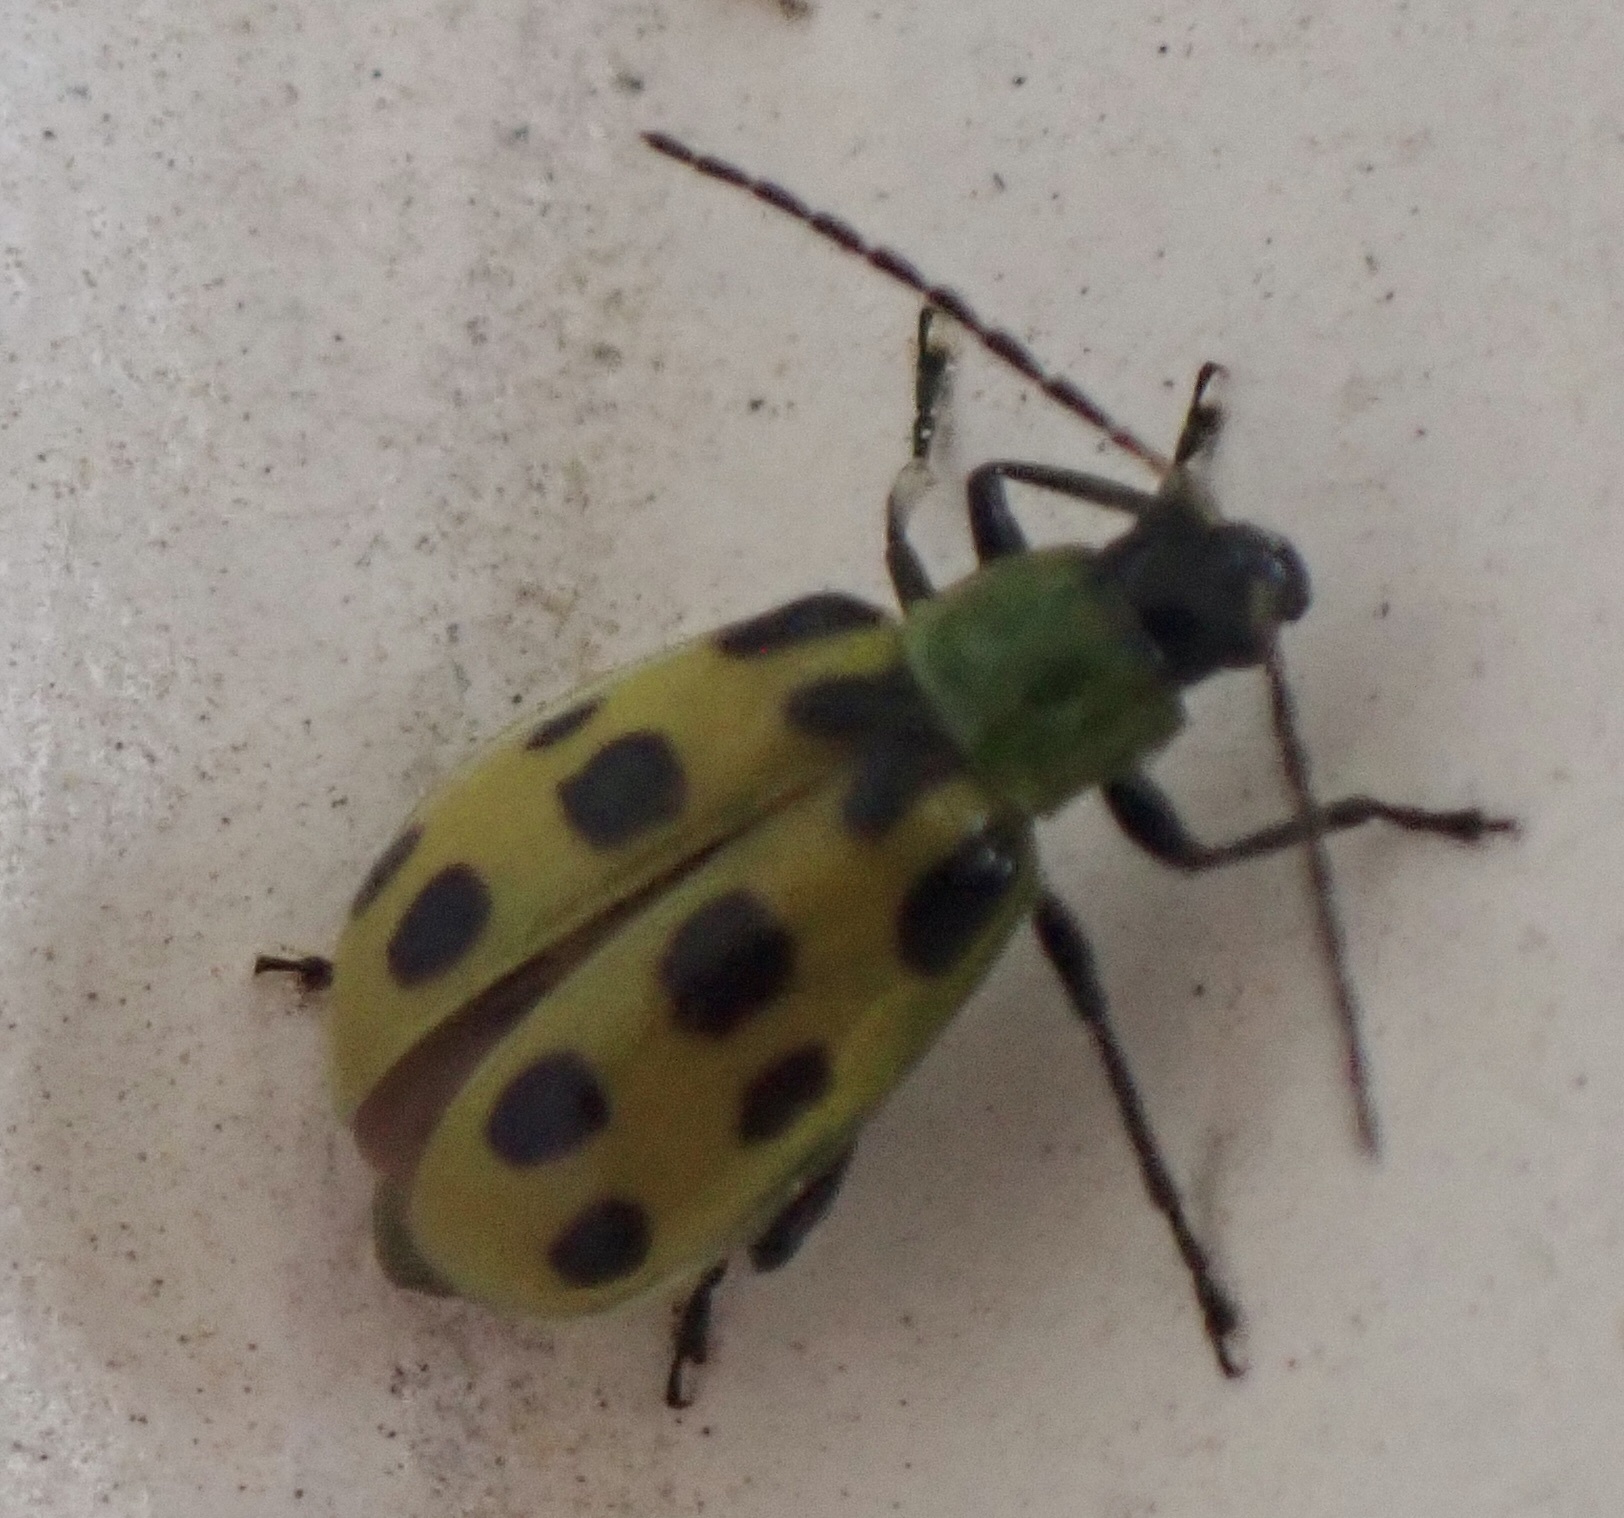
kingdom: Animalia
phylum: Arthropoda
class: Insecta
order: Coleoptera
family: Chrysomelidae
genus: Diabrotica
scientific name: Diabrotica undecimpunctata
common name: Spotted cucumber beetle
